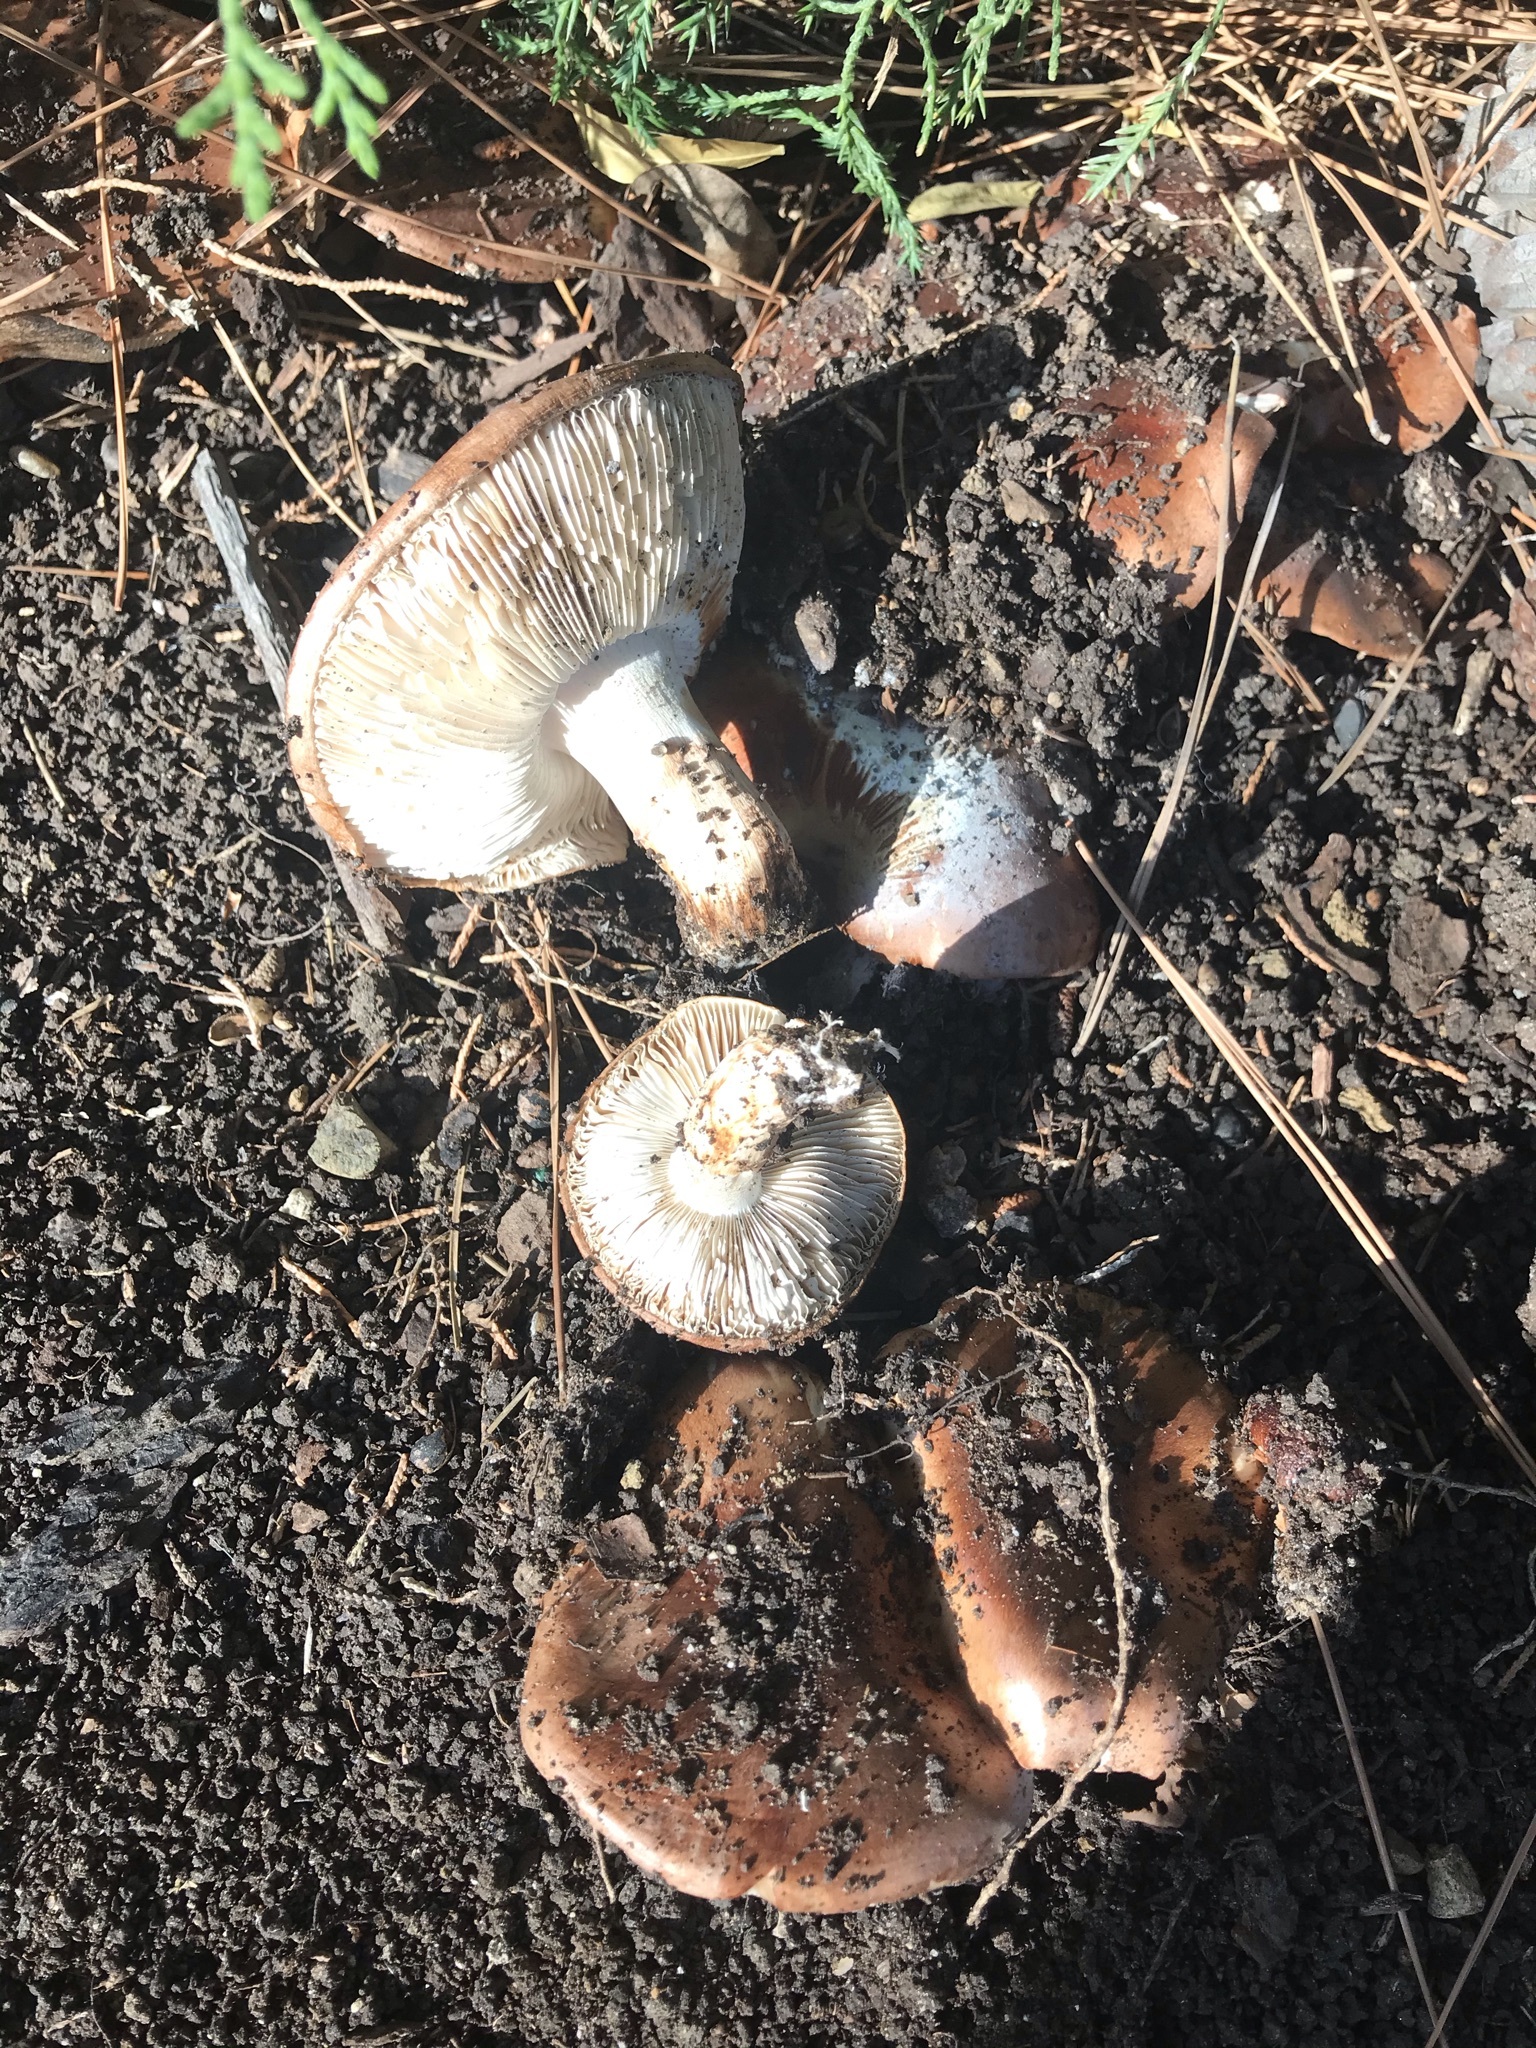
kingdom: Fungi
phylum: Basidiomycota
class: Agaricomycetes
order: Agaricales
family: Tricholomataceae
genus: Tricholoma
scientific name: Tricholoma fracticum
